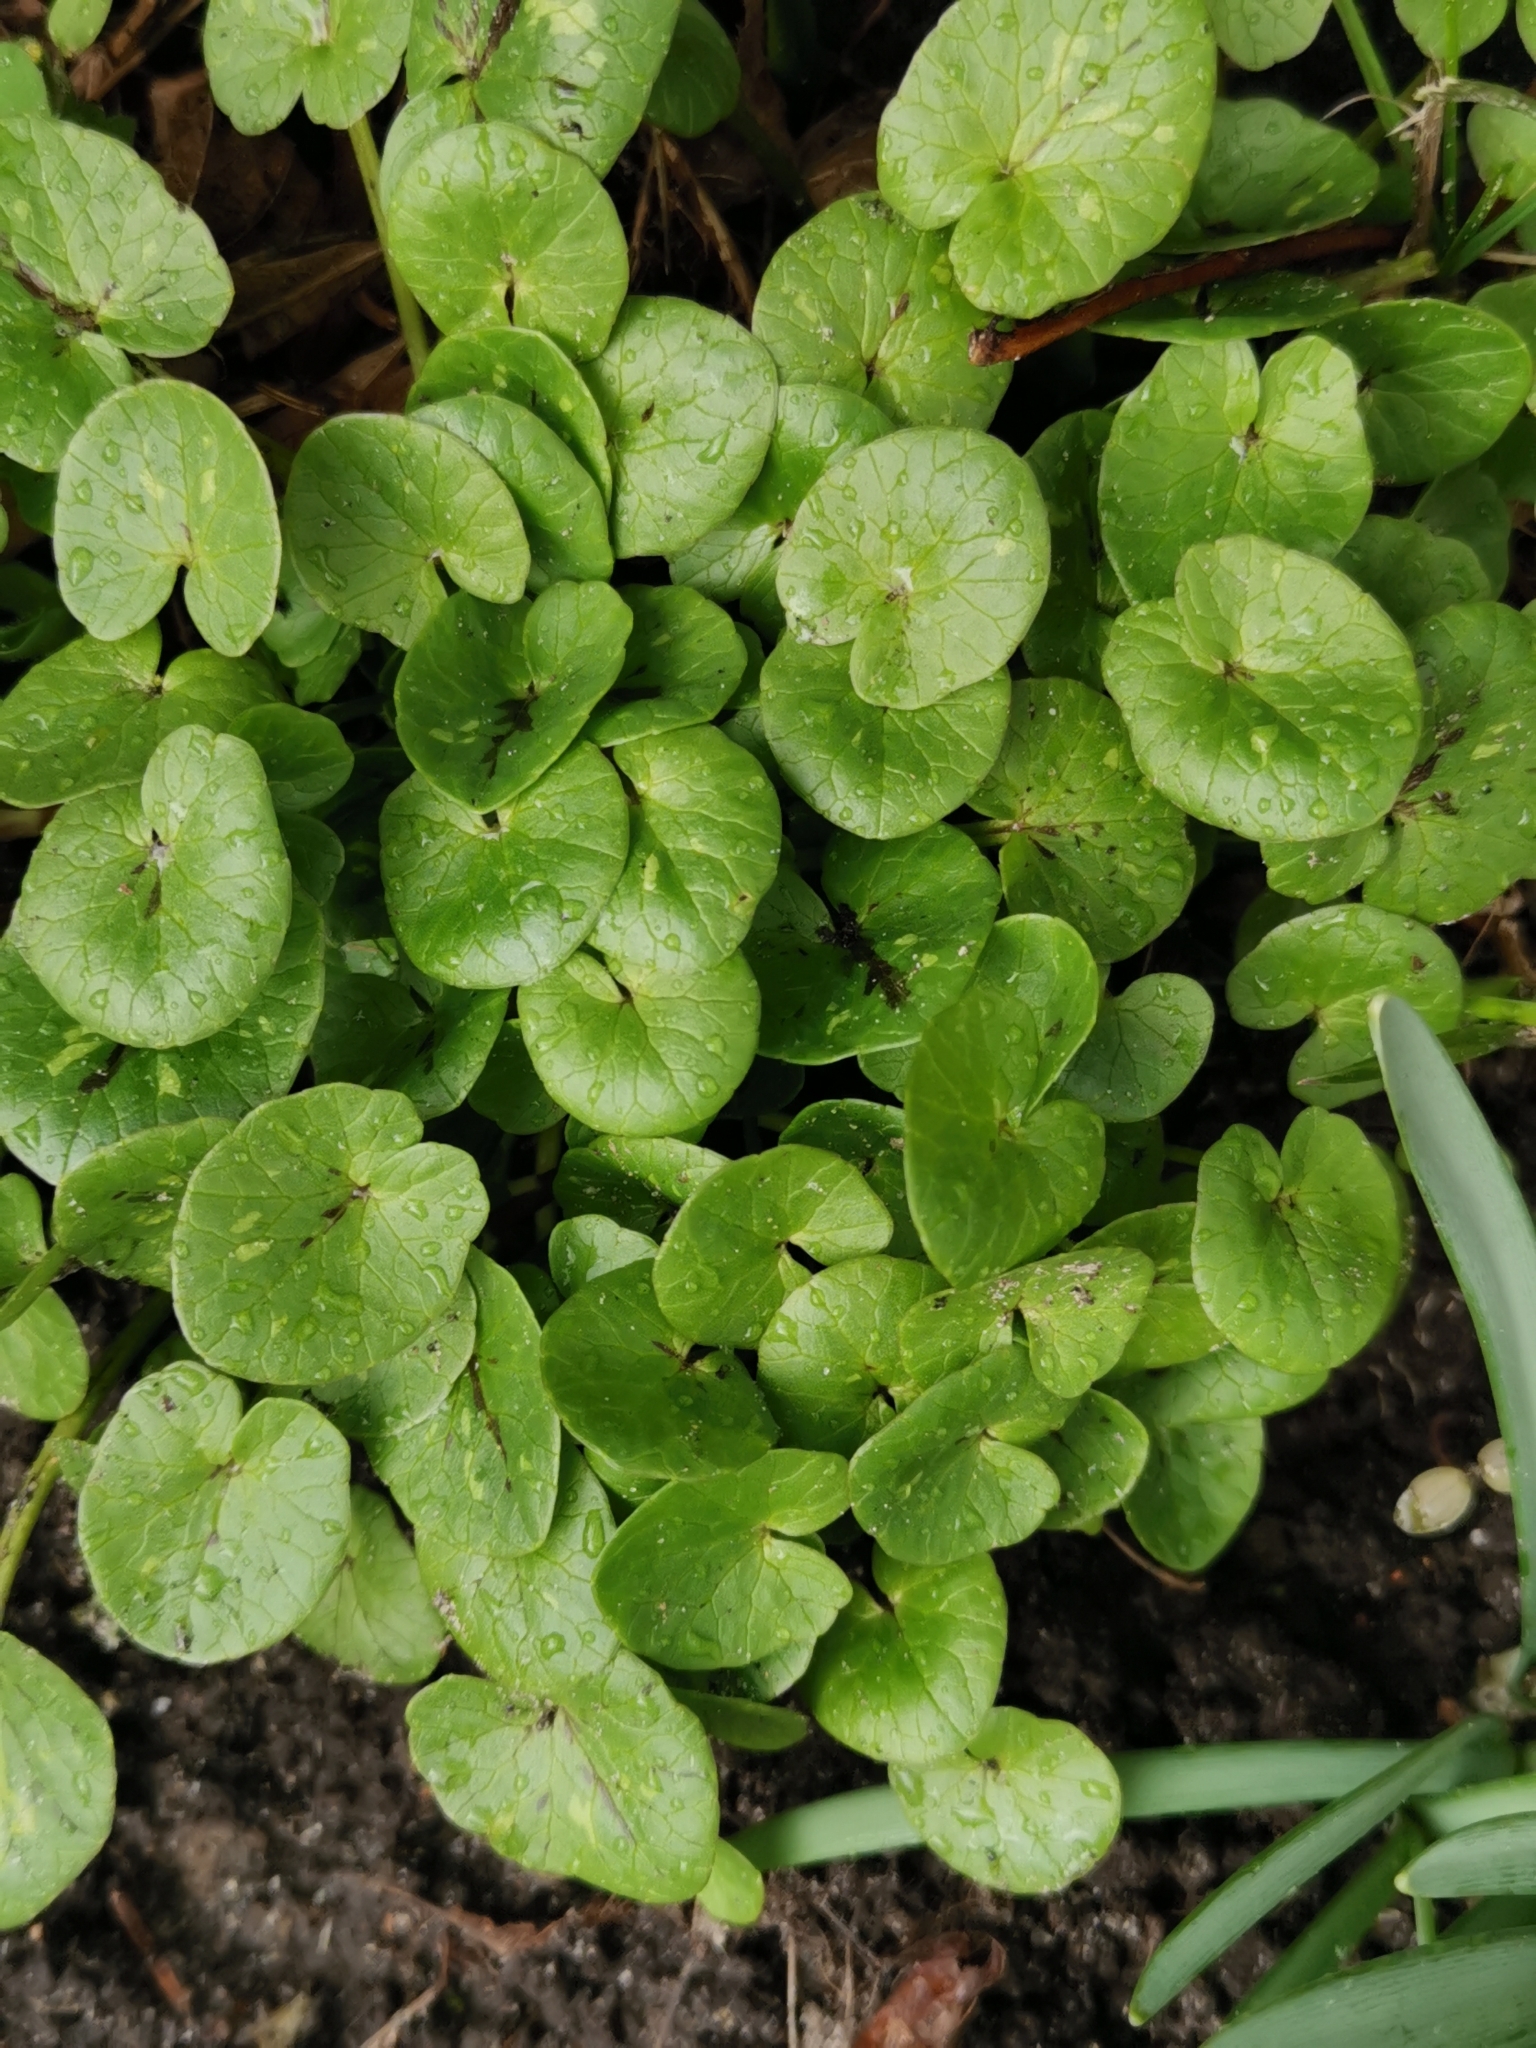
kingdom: Plantae
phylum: Tracheophyta
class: Magnoliopsida
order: Ranunculales
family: Ranunculaceae
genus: Ficaria
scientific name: Ficaria verna
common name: Lesser celandine
